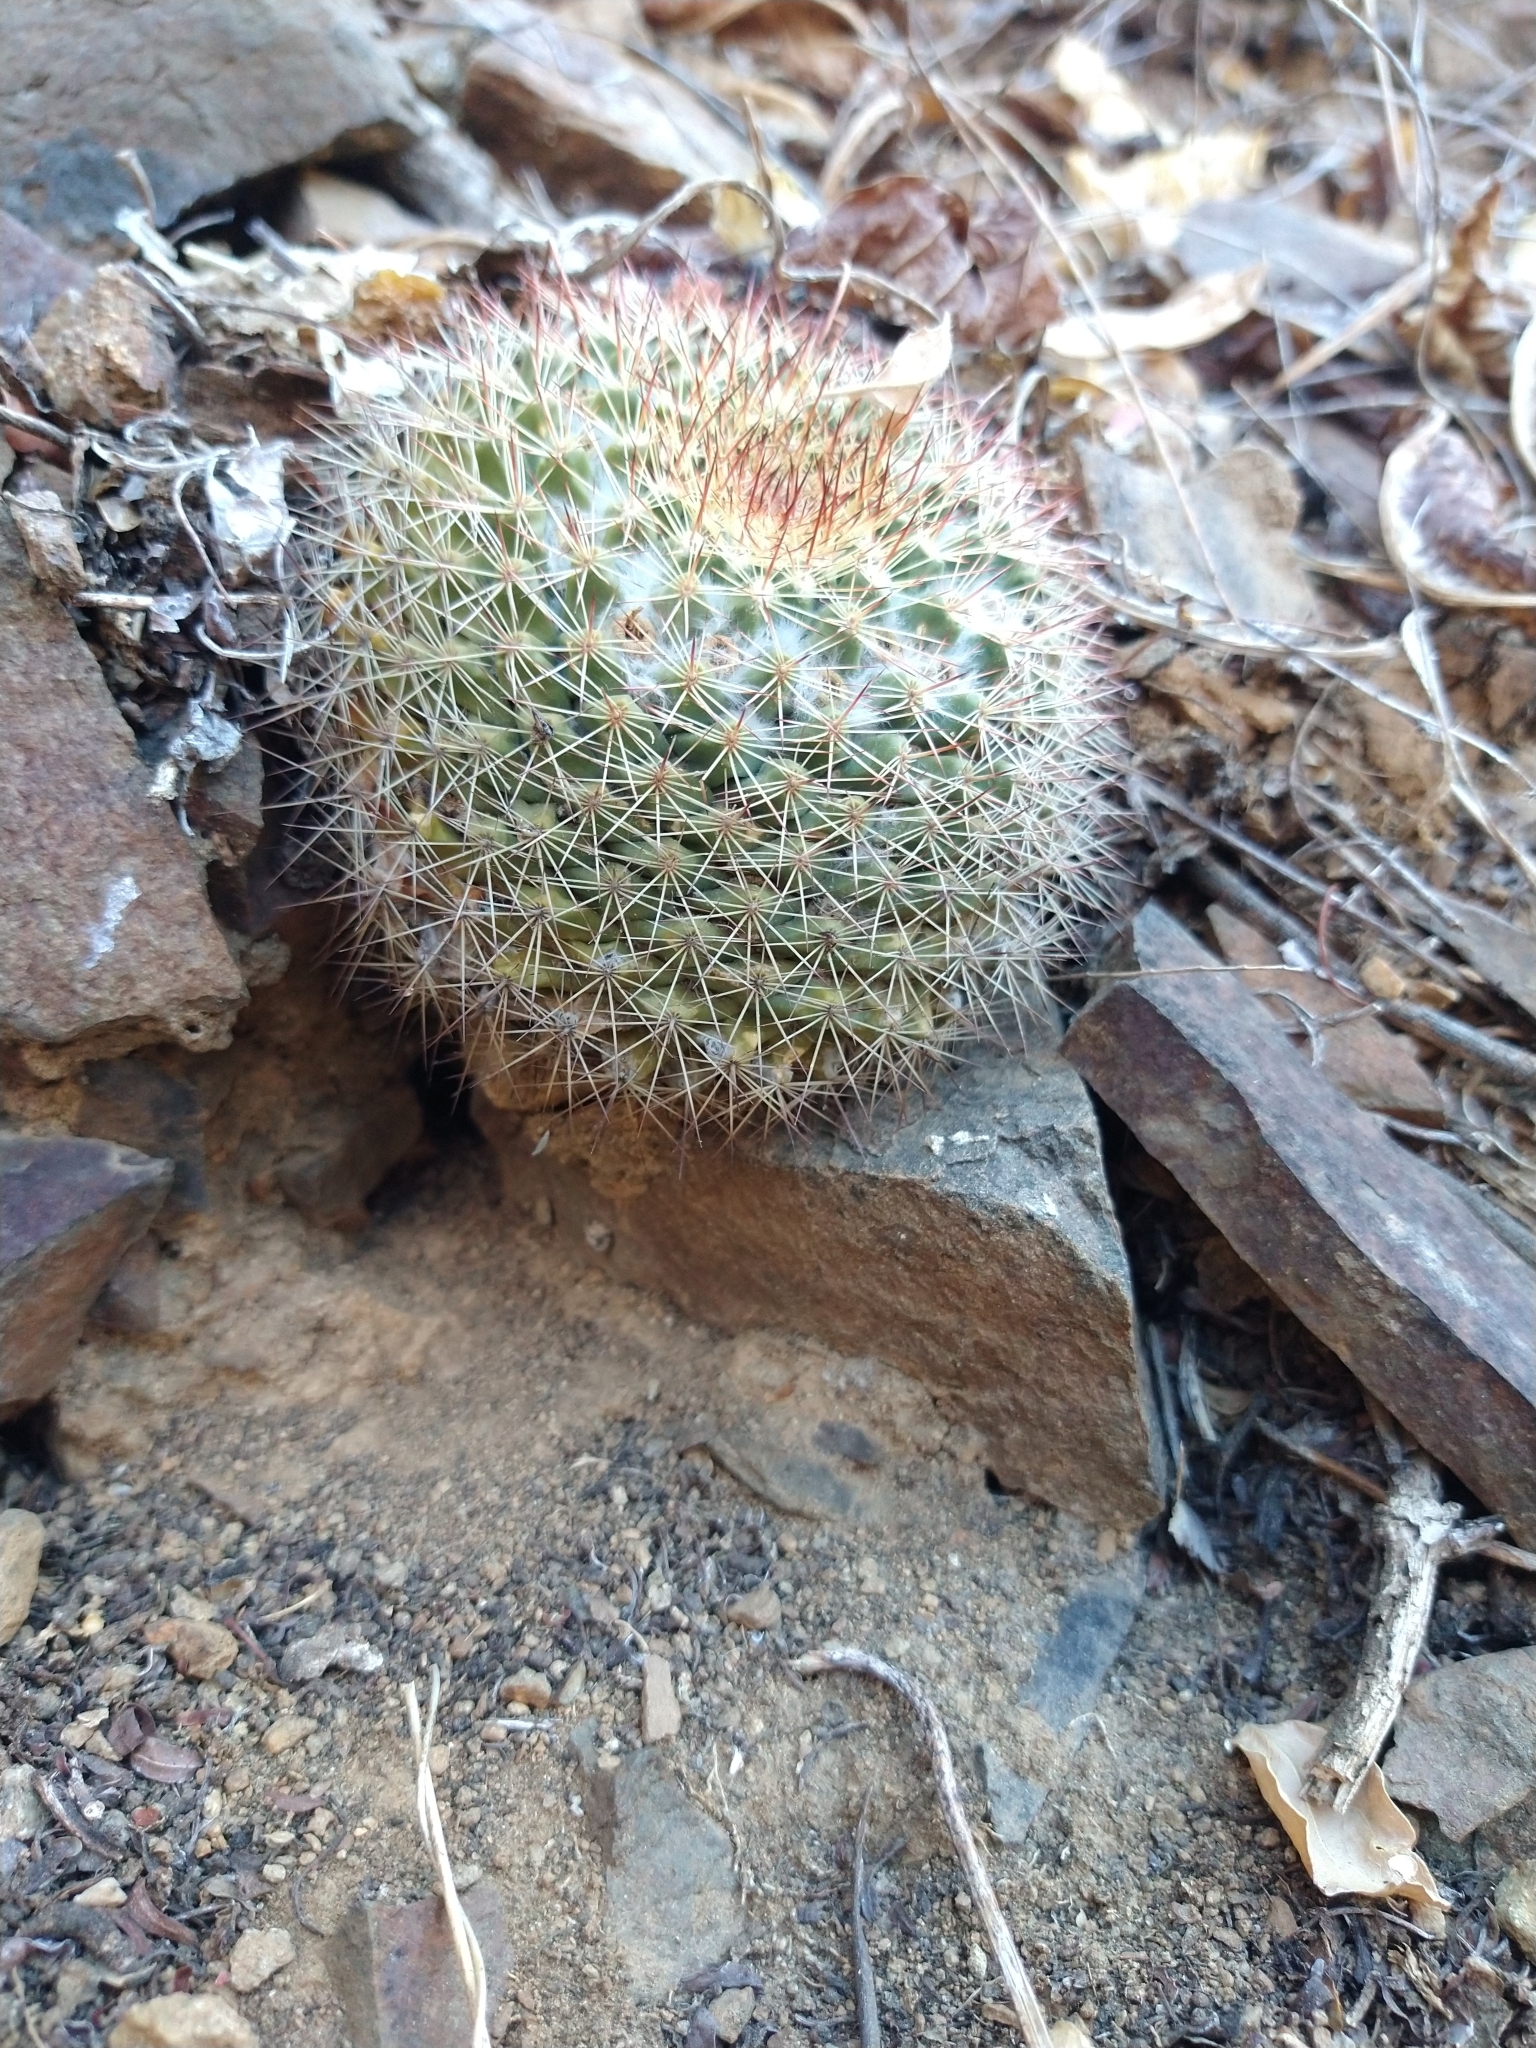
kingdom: Plantae
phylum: Tracheophyta
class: Magnoliopsida
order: Caryophyllales
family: Cactaceae
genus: Mammillaria
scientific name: Mammillaria petrophila
